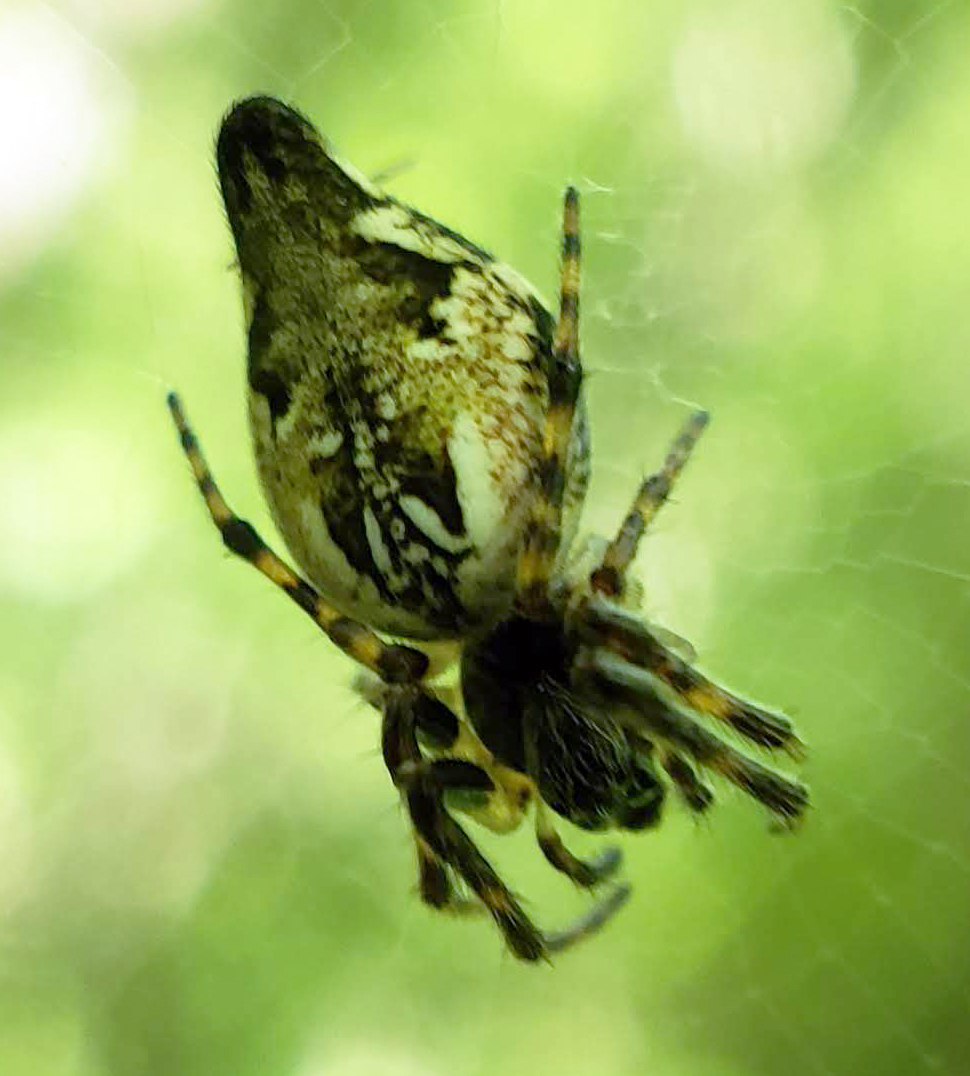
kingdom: Animalia
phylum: Arthropoda
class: Arachnida
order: Araneae
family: Araneidae
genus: Cyclosa
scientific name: Cyclosa conica
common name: Conical trashline orbweaver
